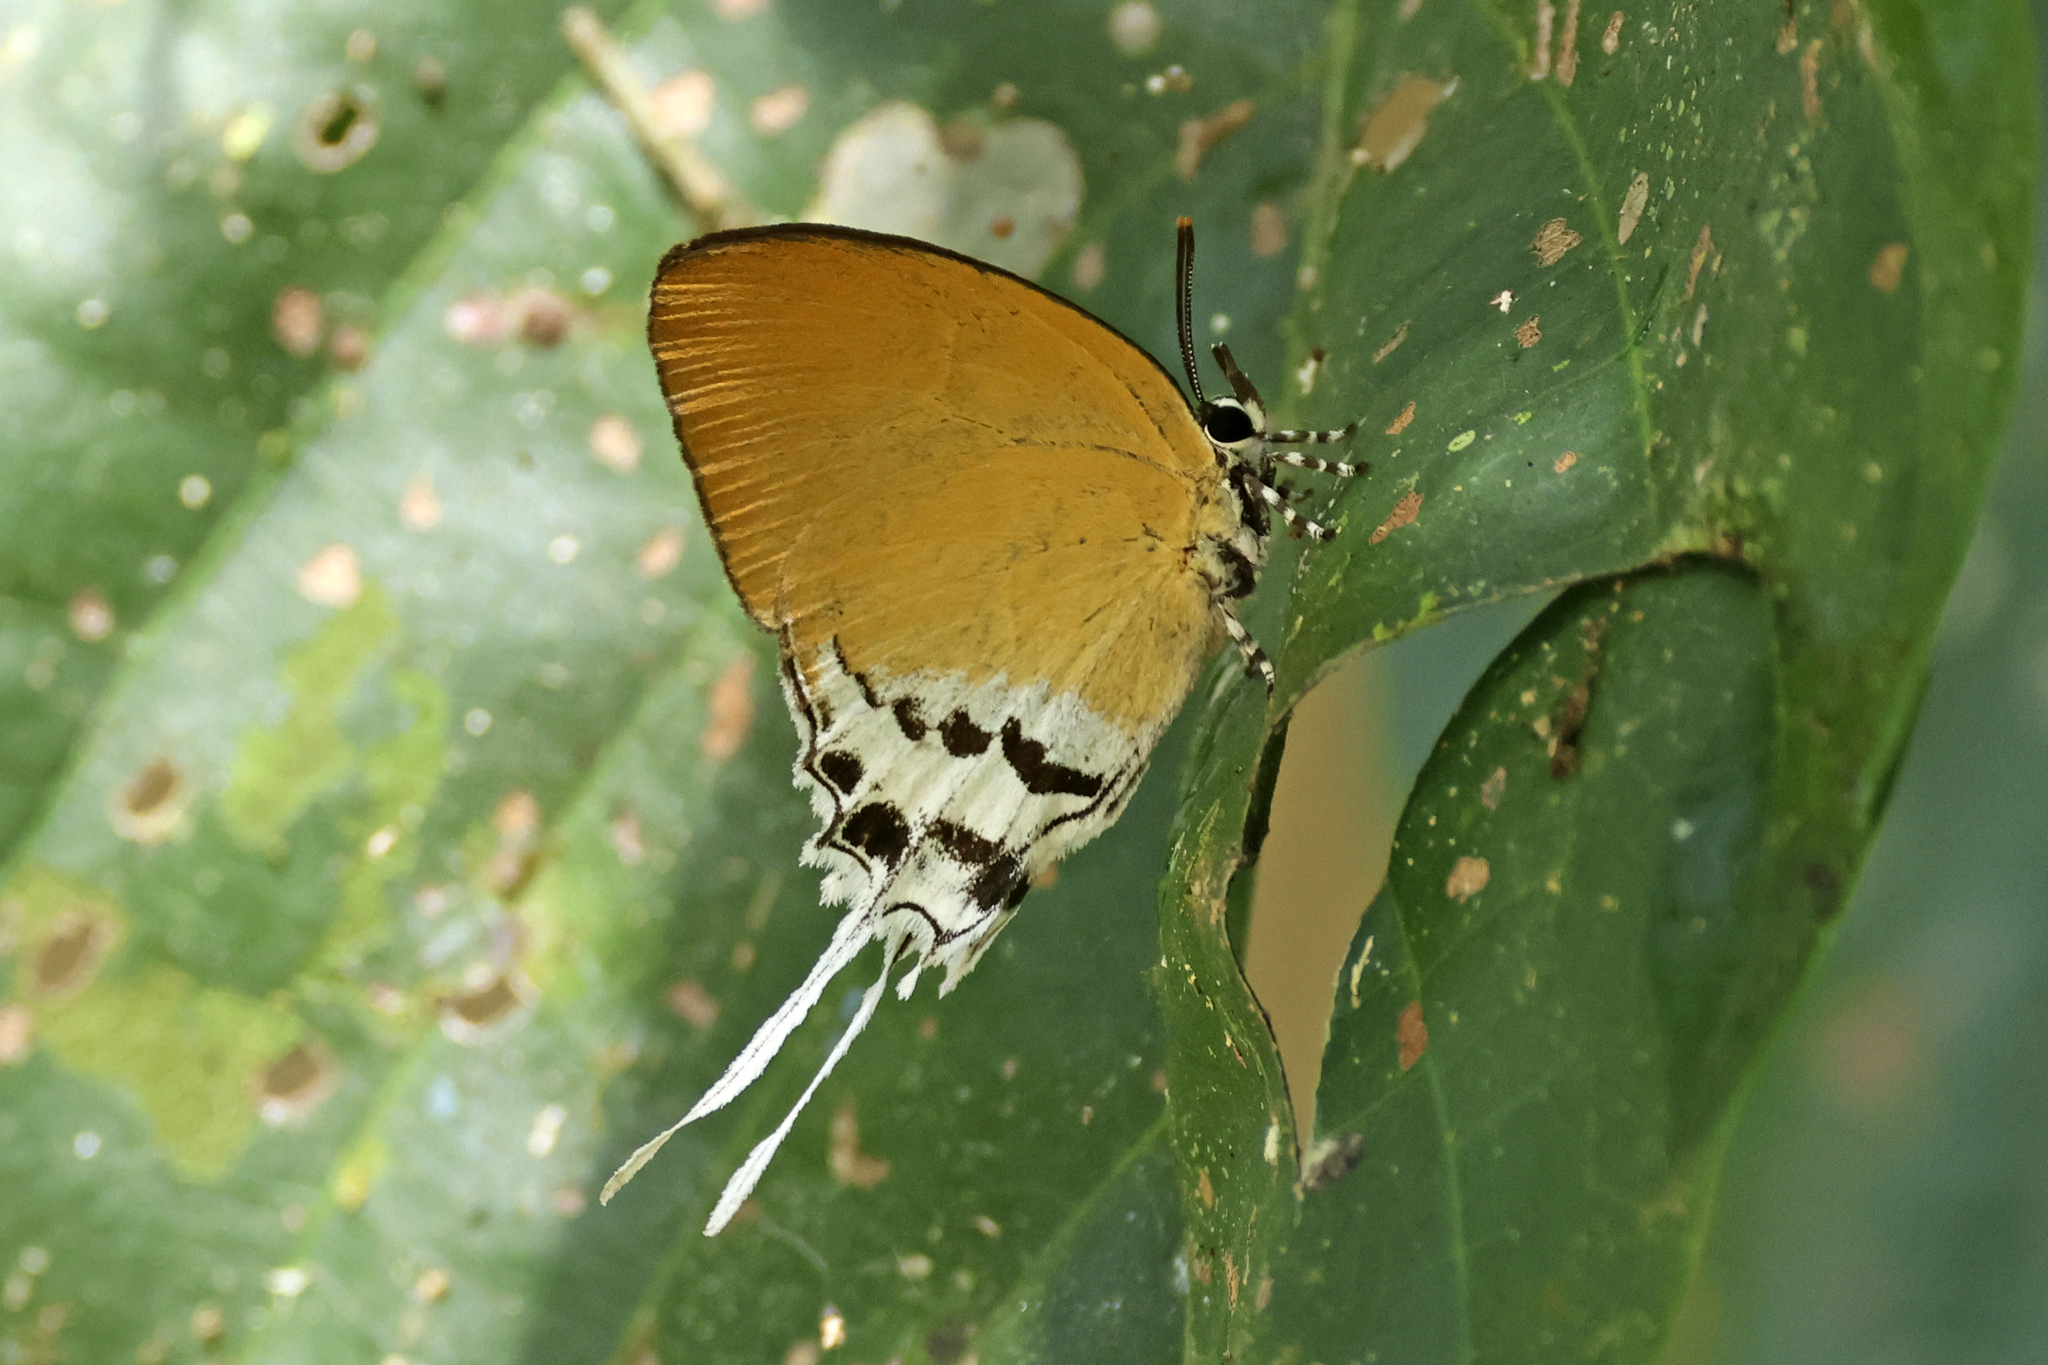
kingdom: Animalia
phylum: Arthropoda
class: Insecta
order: Lepidoptera
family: Lycaenidae
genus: Eooxylides
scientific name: Eooxylides
